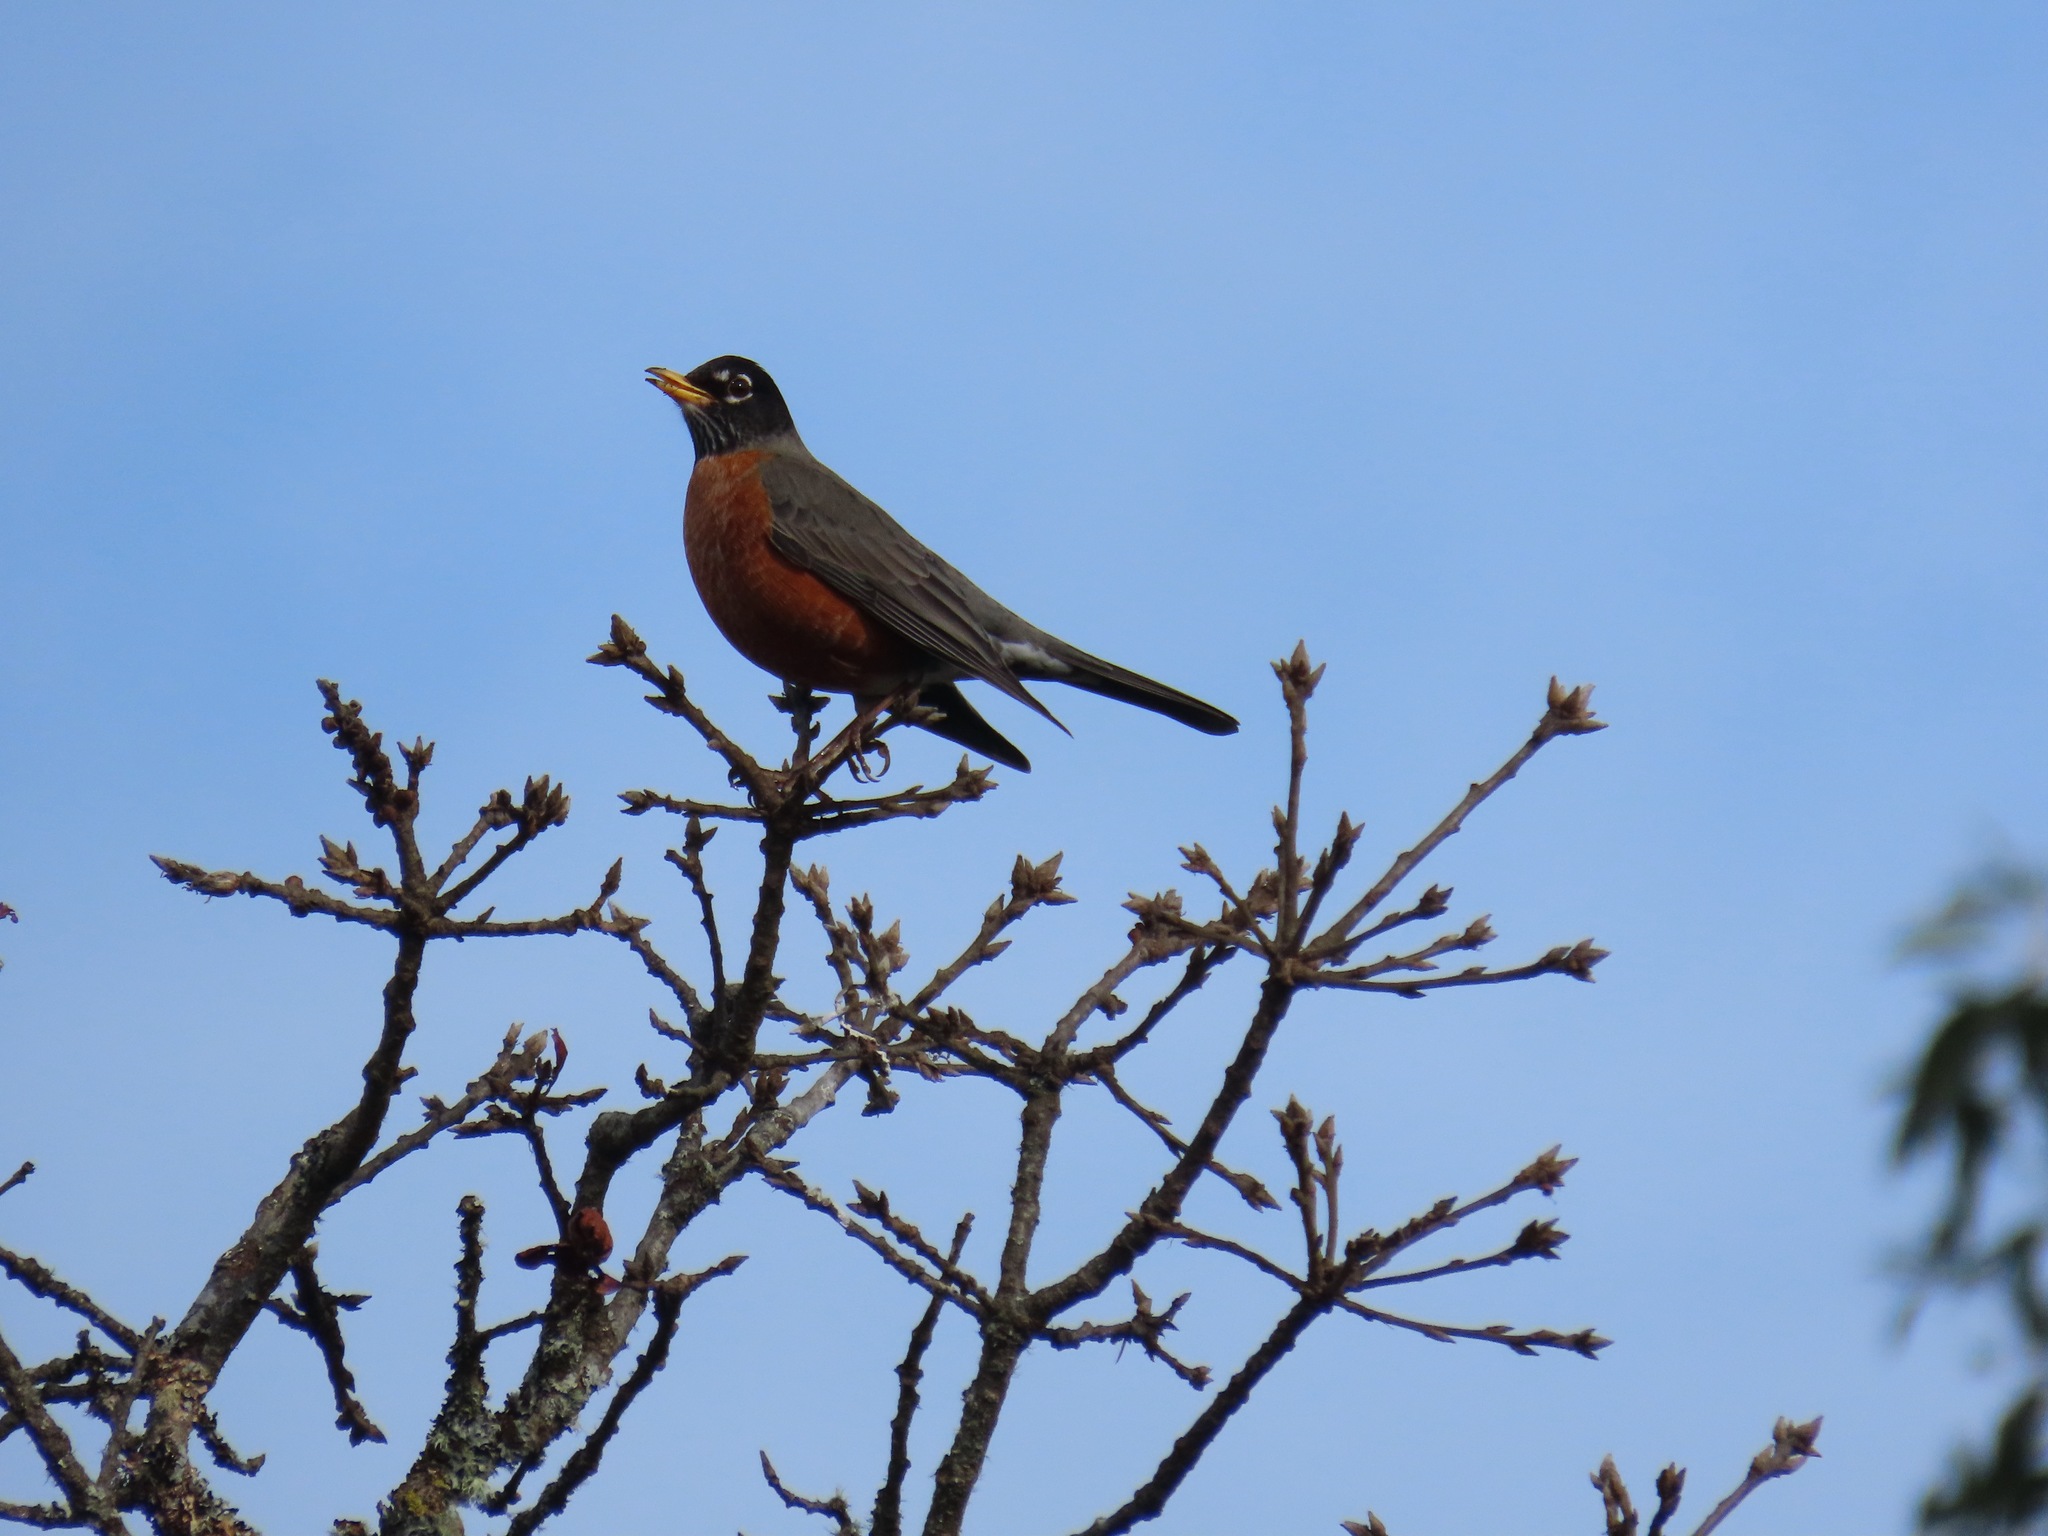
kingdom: Animalia
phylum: Chordata
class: Aves
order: Passeriformes
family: Turdidae
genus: Turdus
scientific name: Turdus migratorius
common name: American robin
